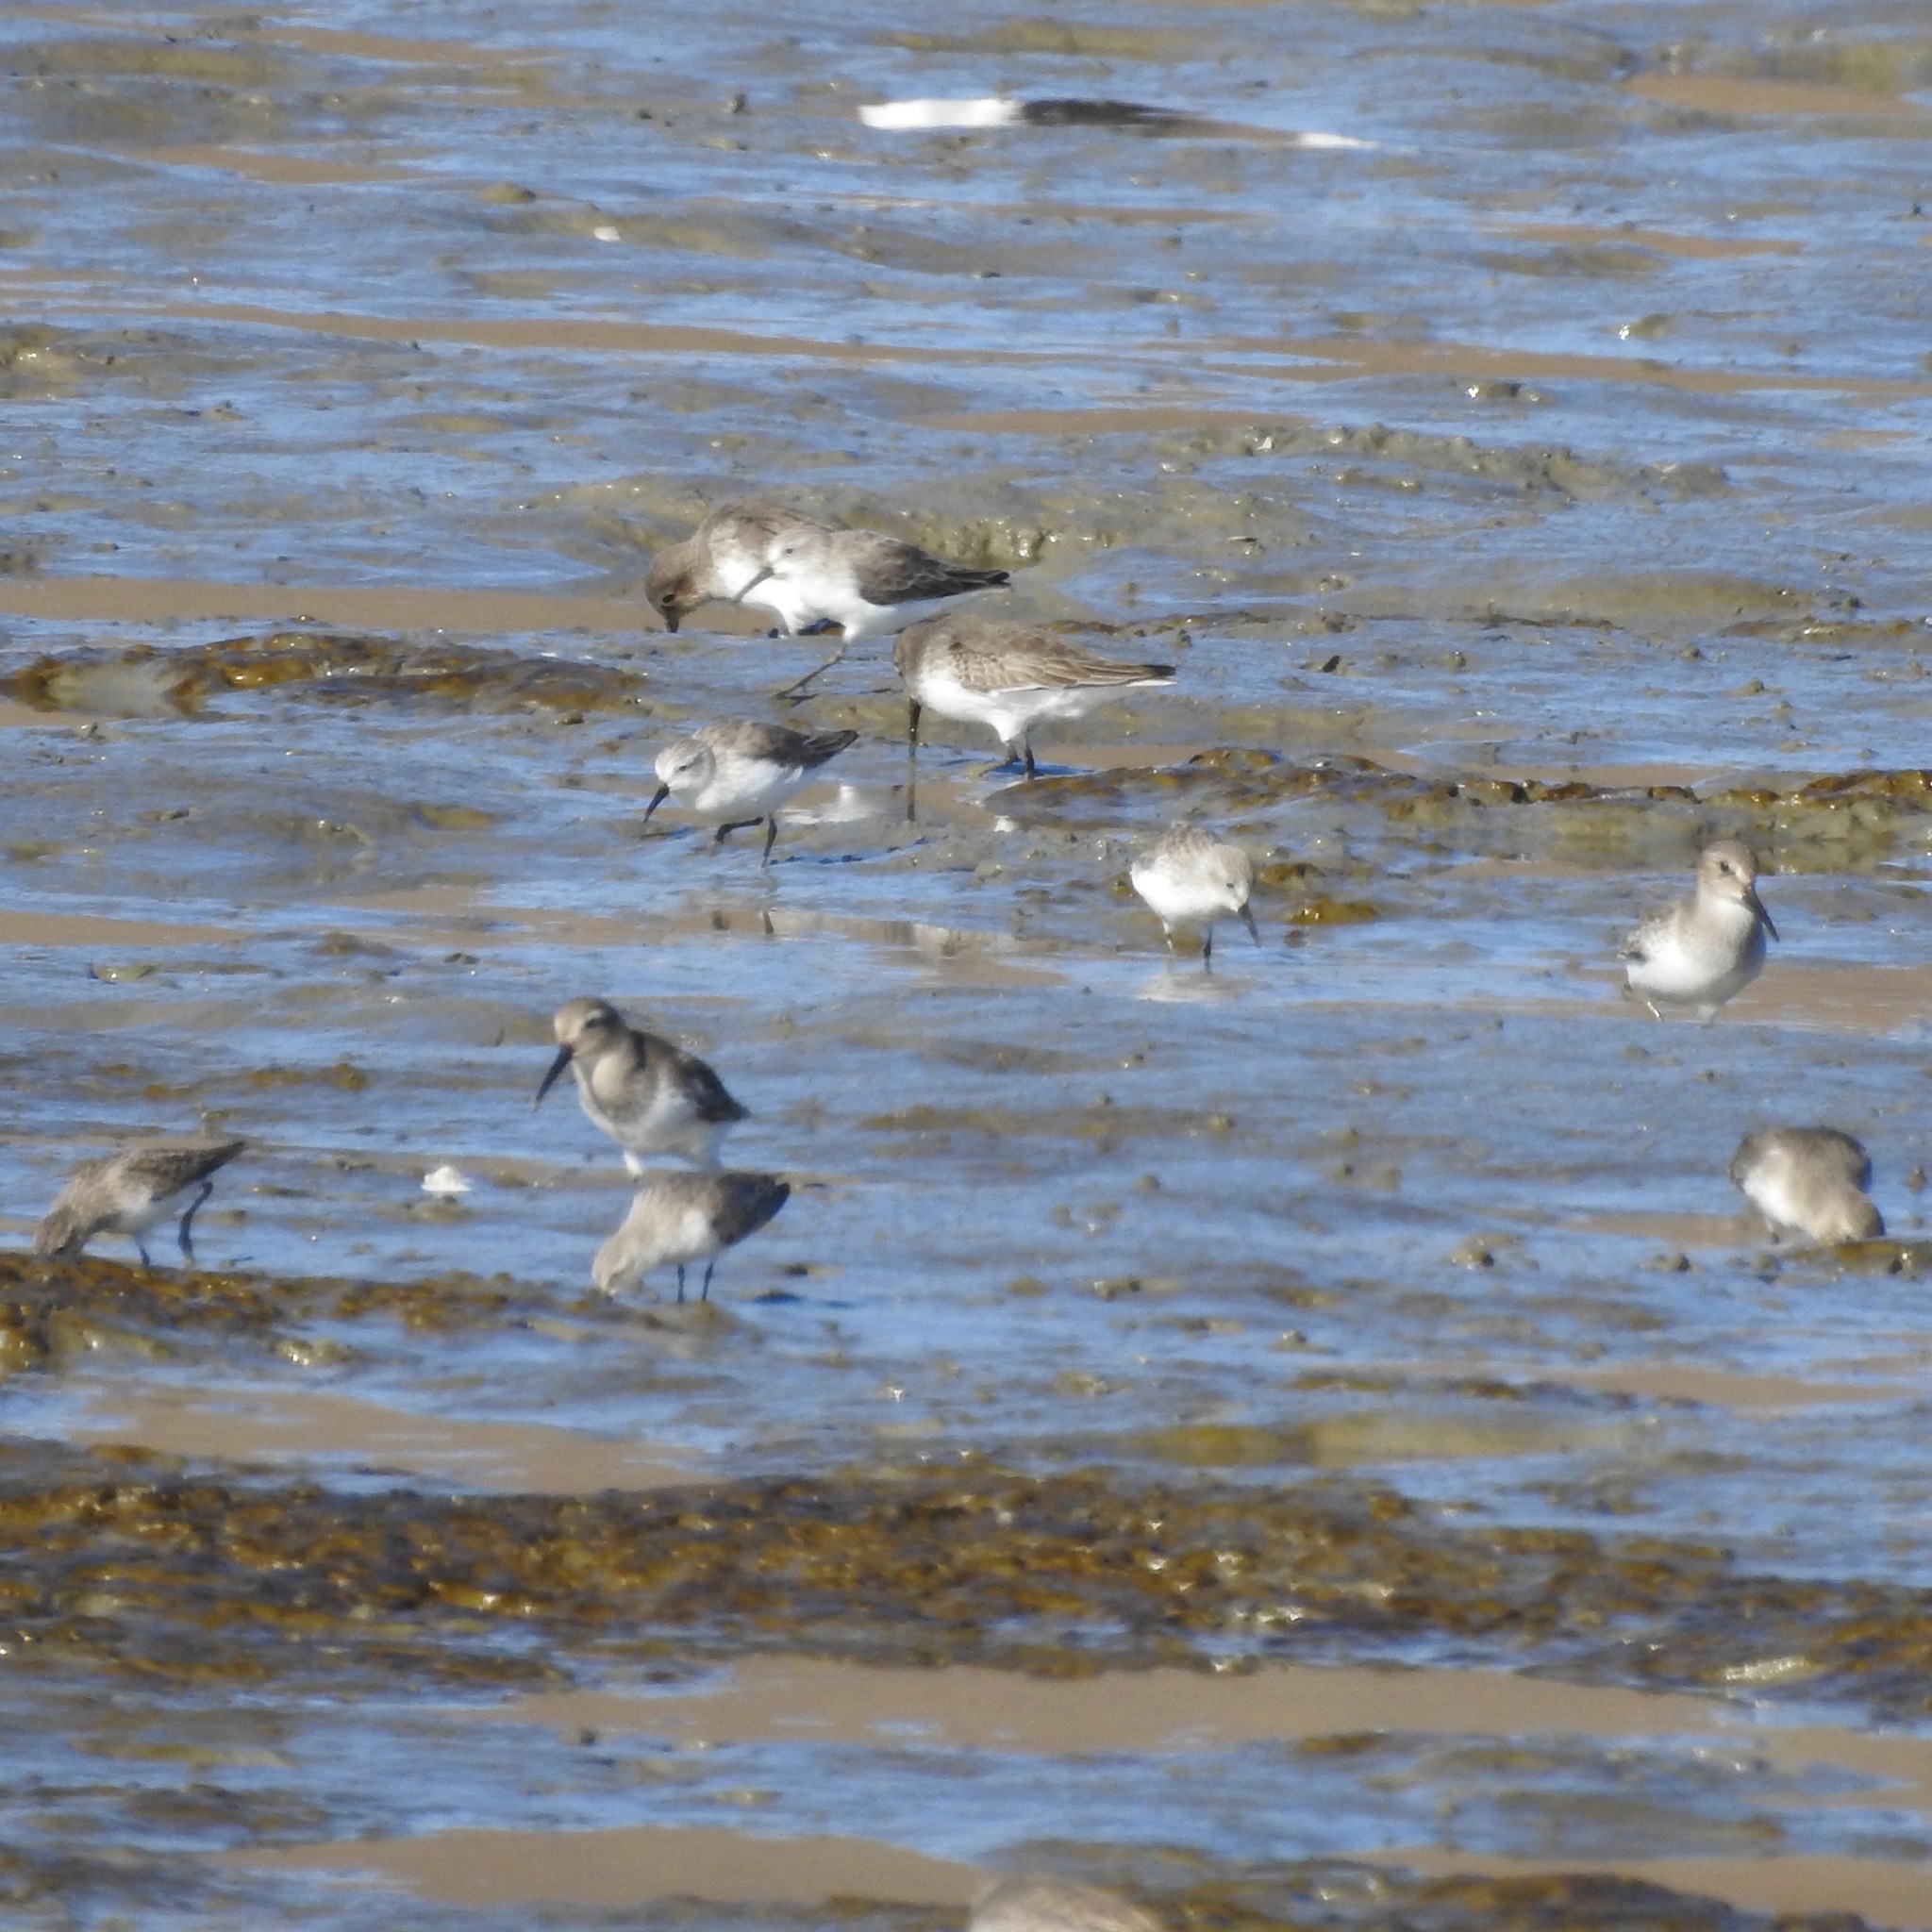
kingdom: Animalia
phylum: Chordata
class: Aves
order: Charadriiformes
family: Scolopacidae
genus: Calidris
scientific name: Calidris minutilla
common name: Least sandpiper
